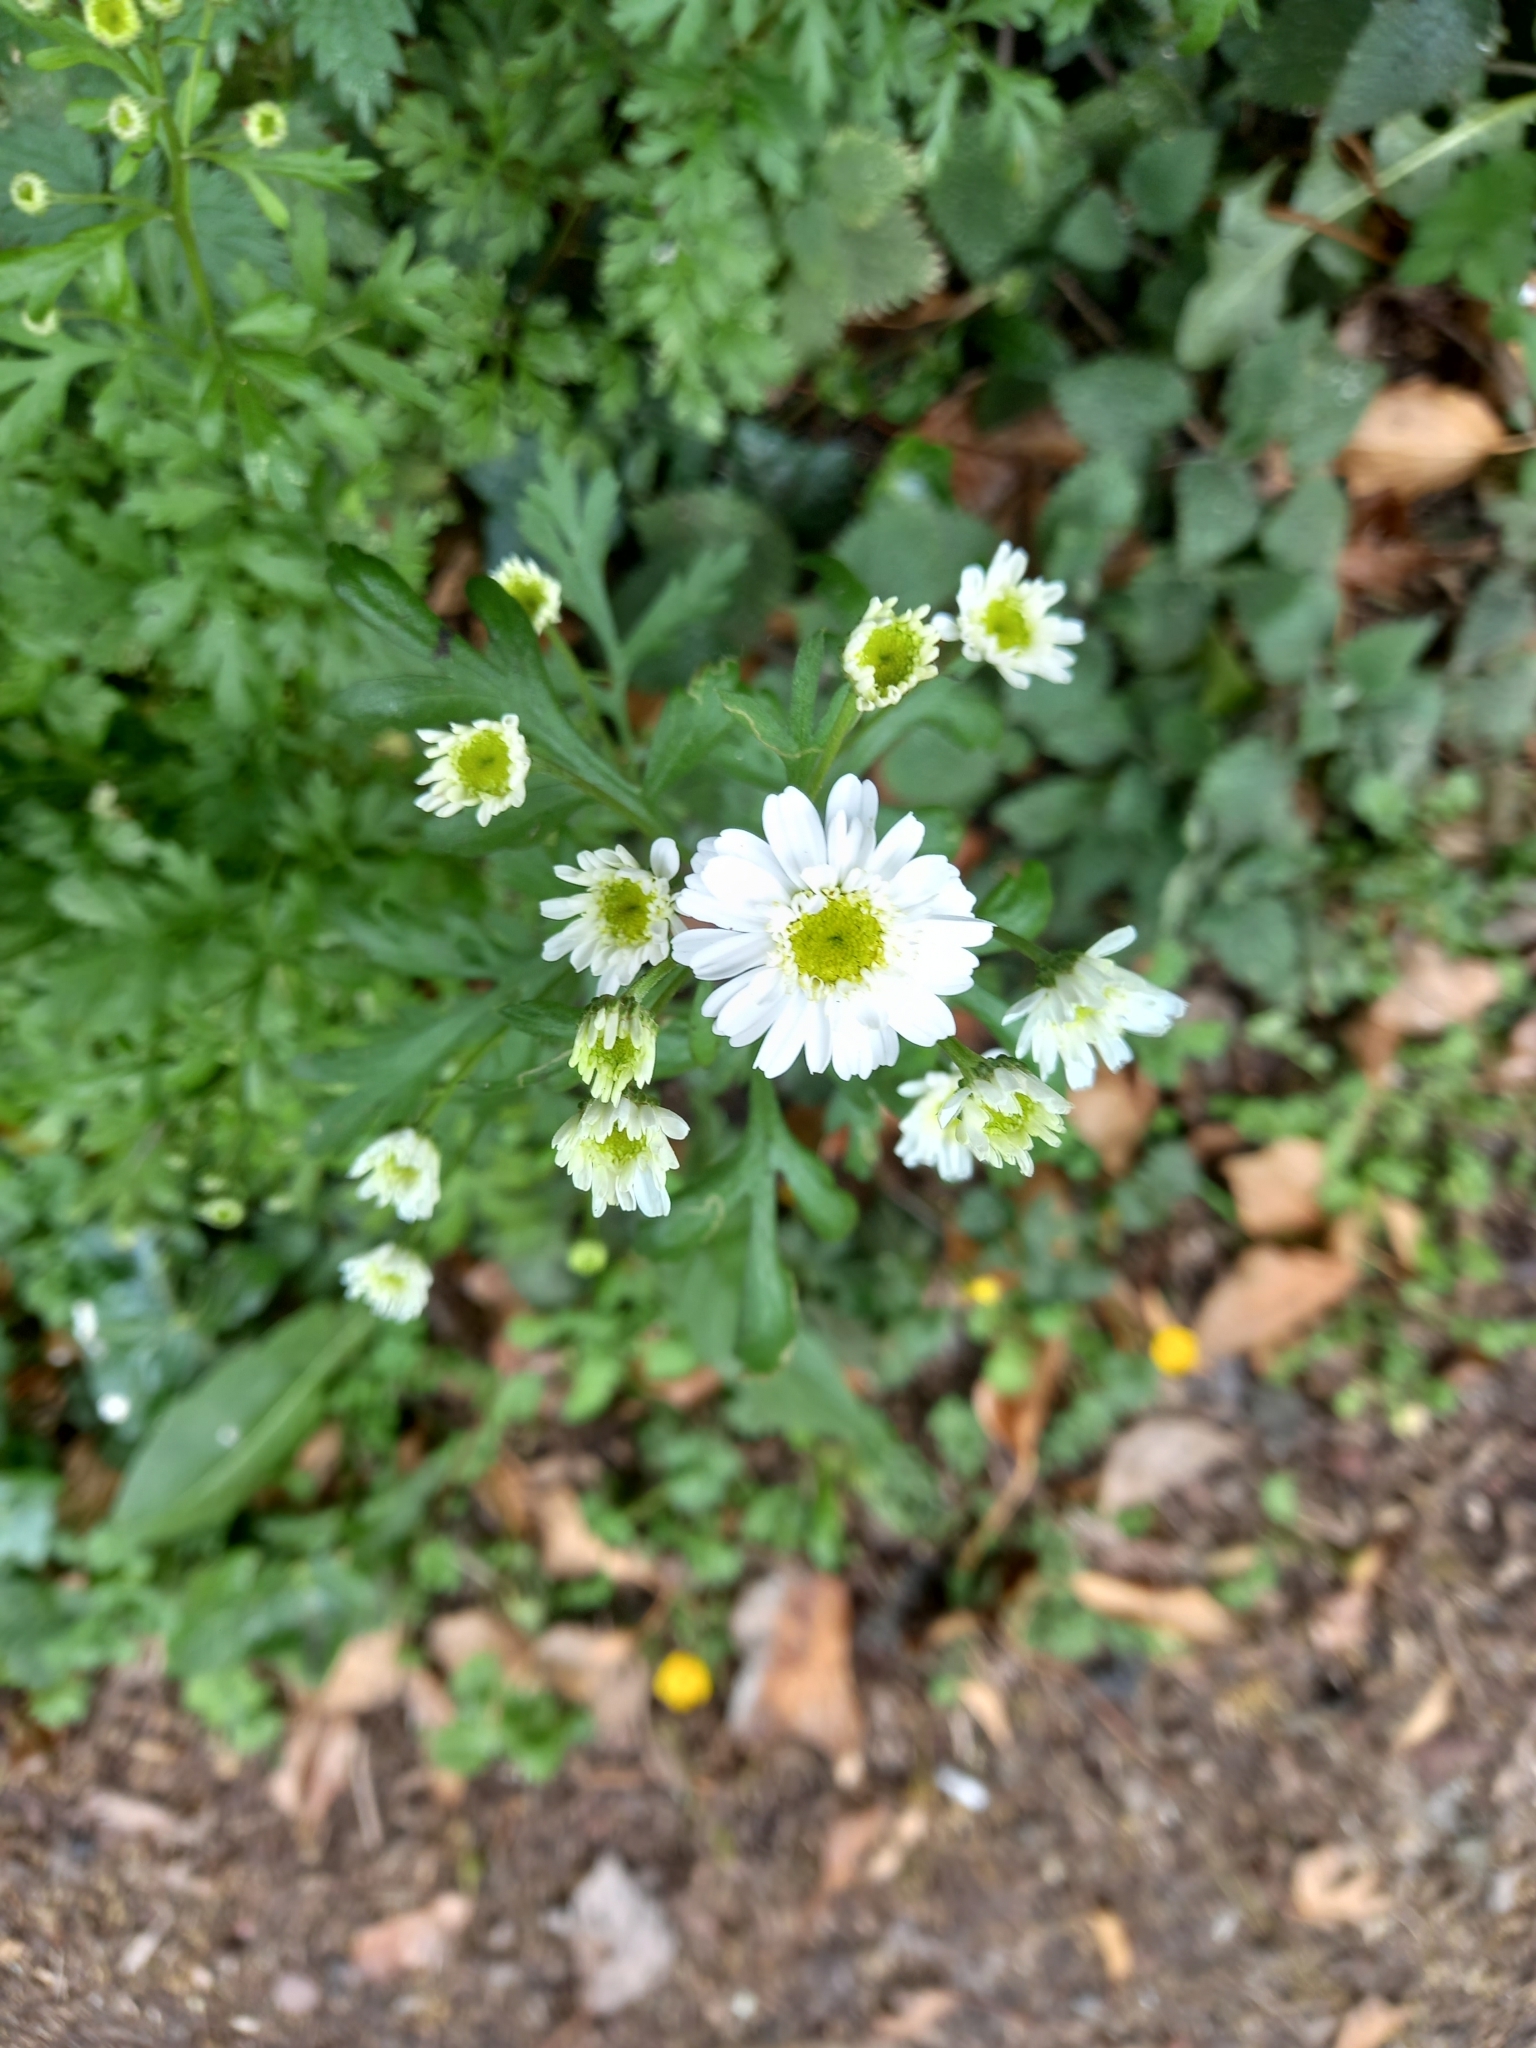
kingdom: Plantae
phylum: Tracheophyta
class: Magnoliopsida
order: Asterales
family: Asteraceae
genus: Tanacetum
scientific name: Tanacetum parthenium
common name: Feverfew
